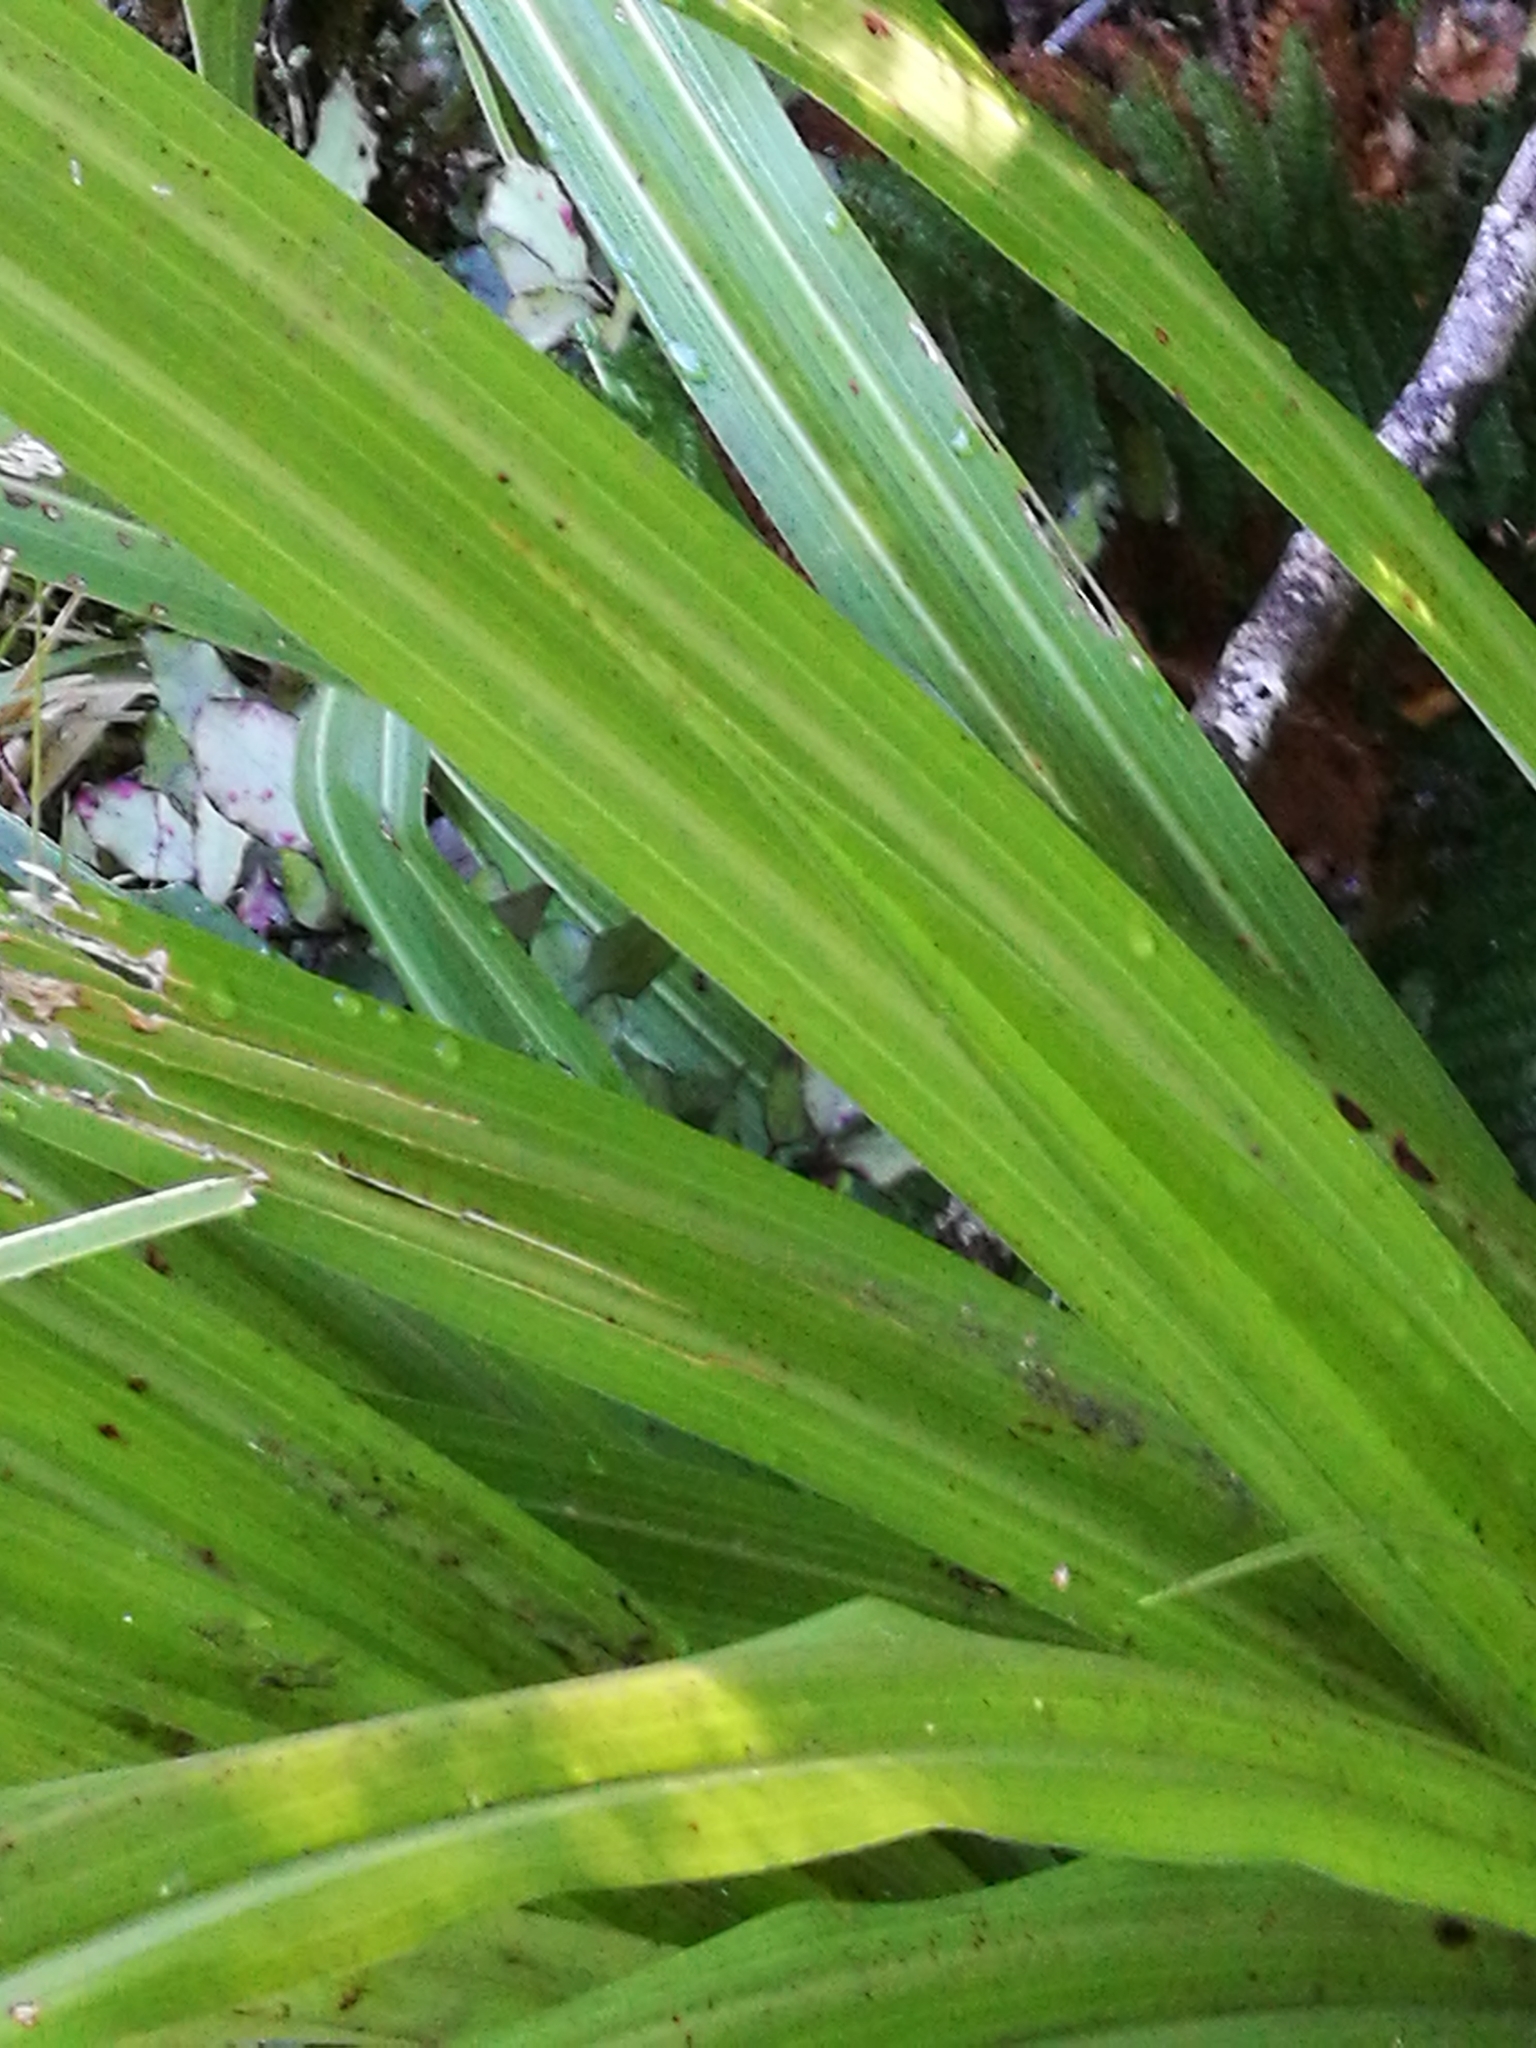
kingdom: Plantae
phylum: Tracheophyta
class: Liliopsida
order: Asparagales
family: Asteliaceae
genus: Astelia
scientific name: Astelia fragrans
